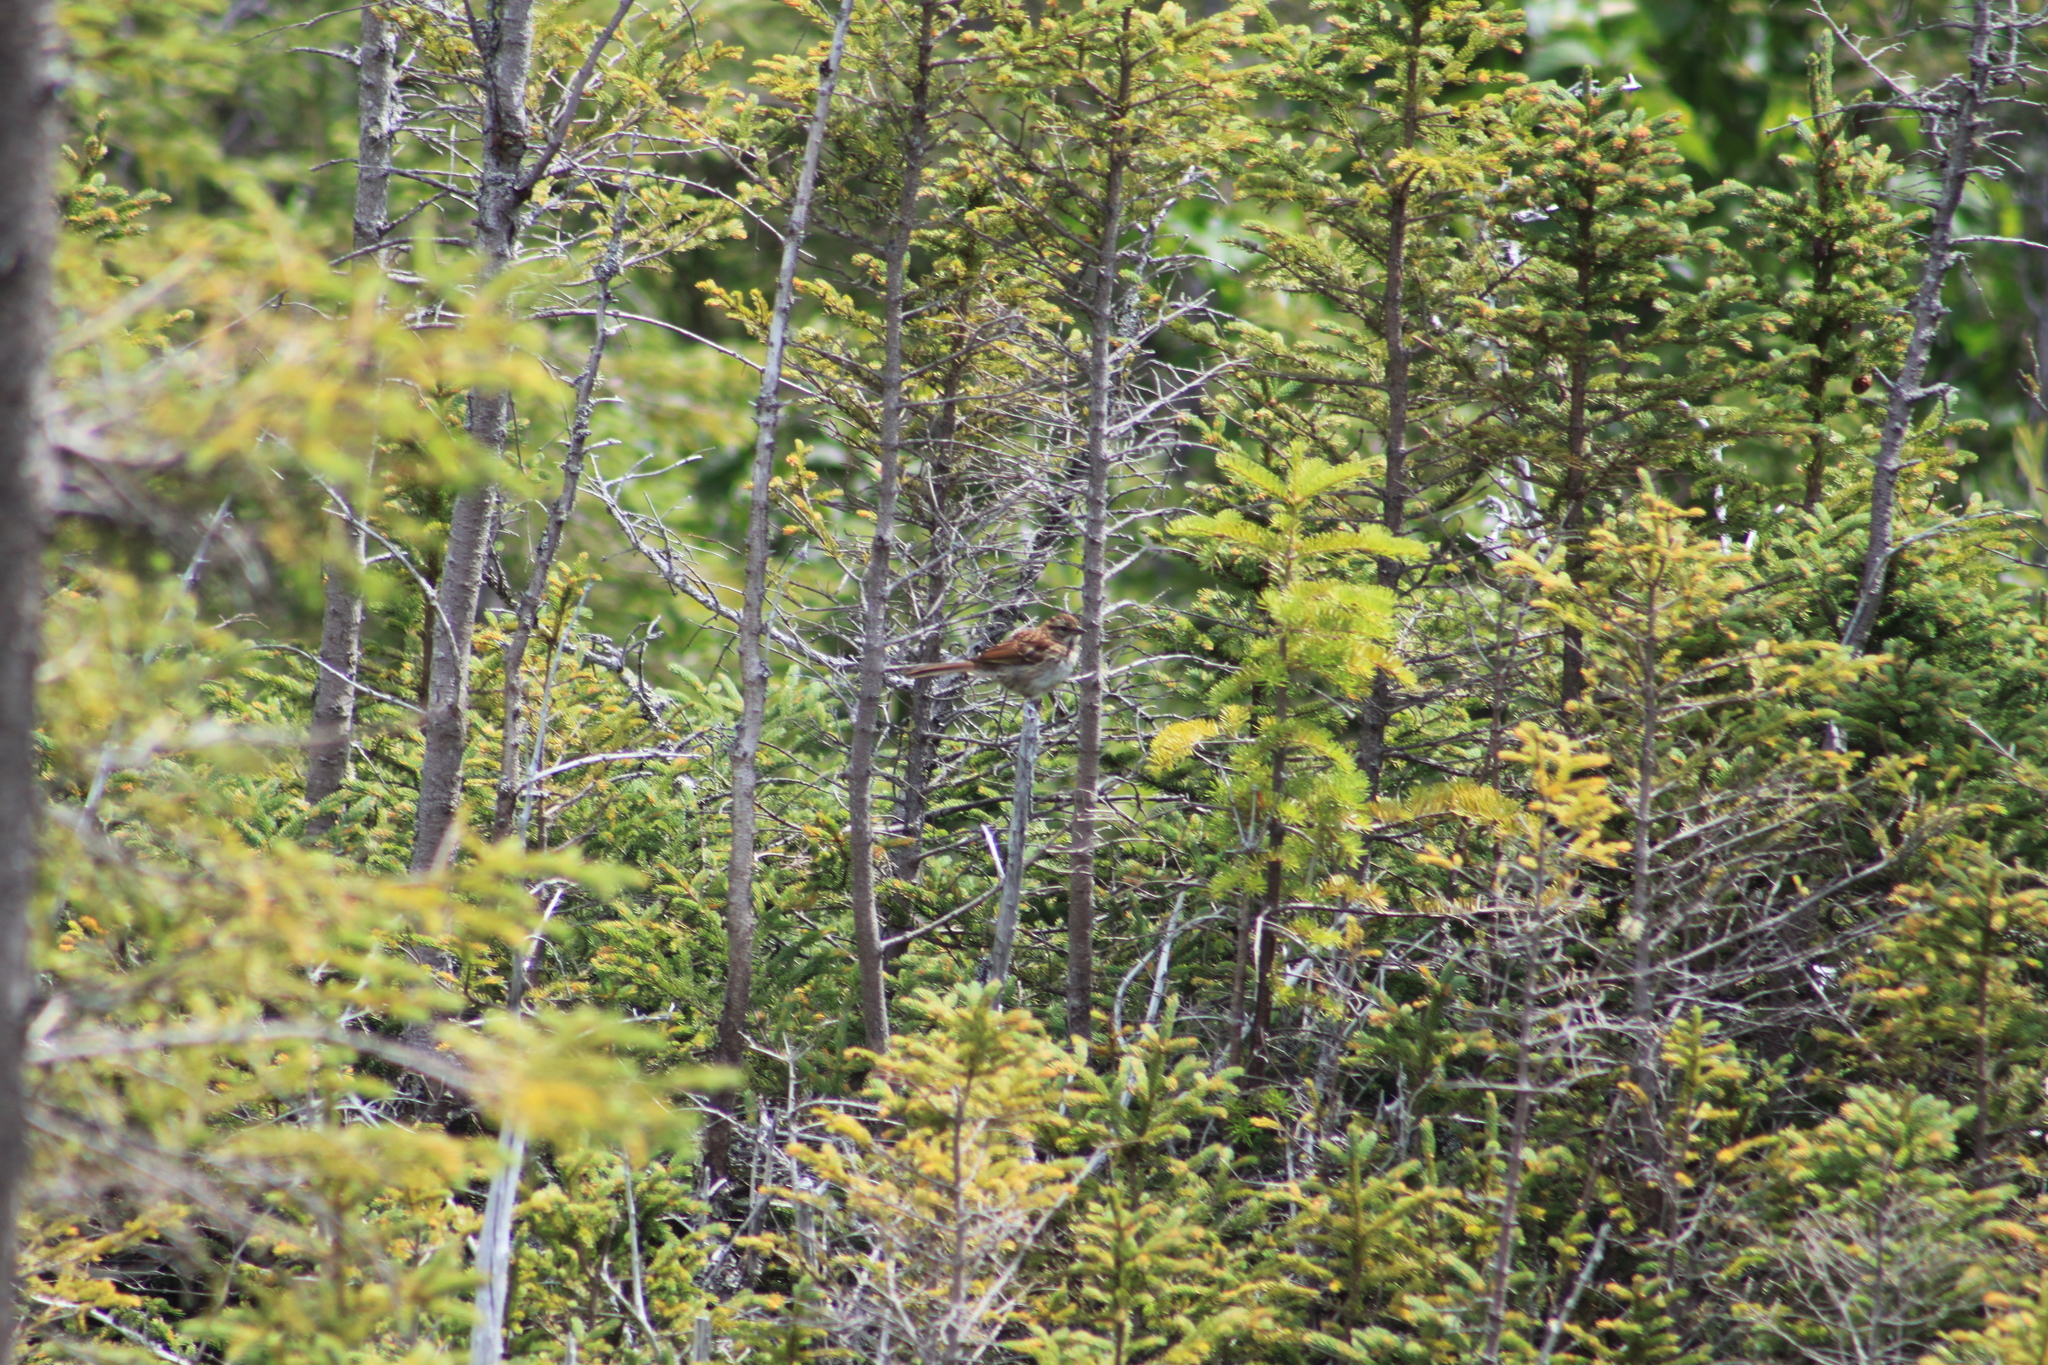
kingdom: Animalia
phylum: Chordata
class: Aves
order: Passeriformes
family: Passerellidae
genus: Zonotrichia
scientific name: Zonotrichia albicollis
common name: White-throated sparrow
